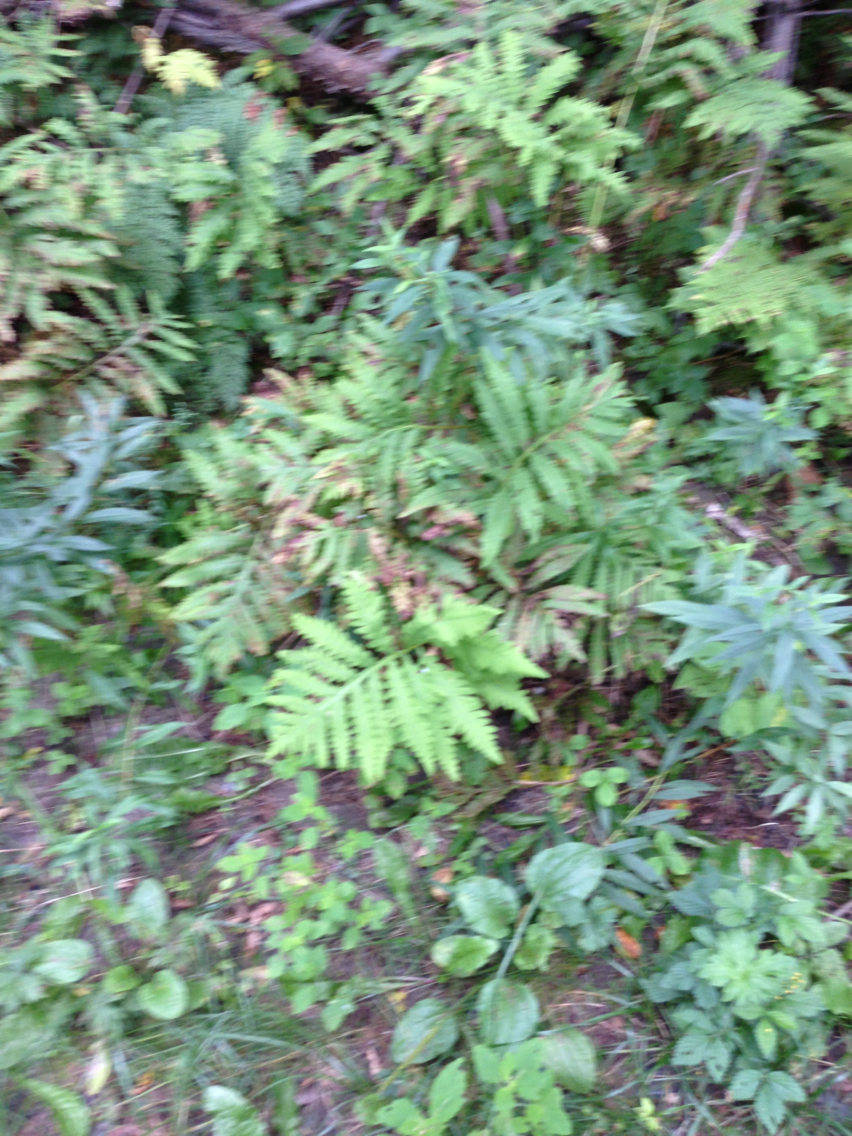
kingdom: Plantae
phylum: Tracheophyta
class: Polypodiopsida
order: Polypodiales
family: Onocleaceae
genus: Onoclea
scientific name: Onoclea sensibilis
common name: Sensitive fern
